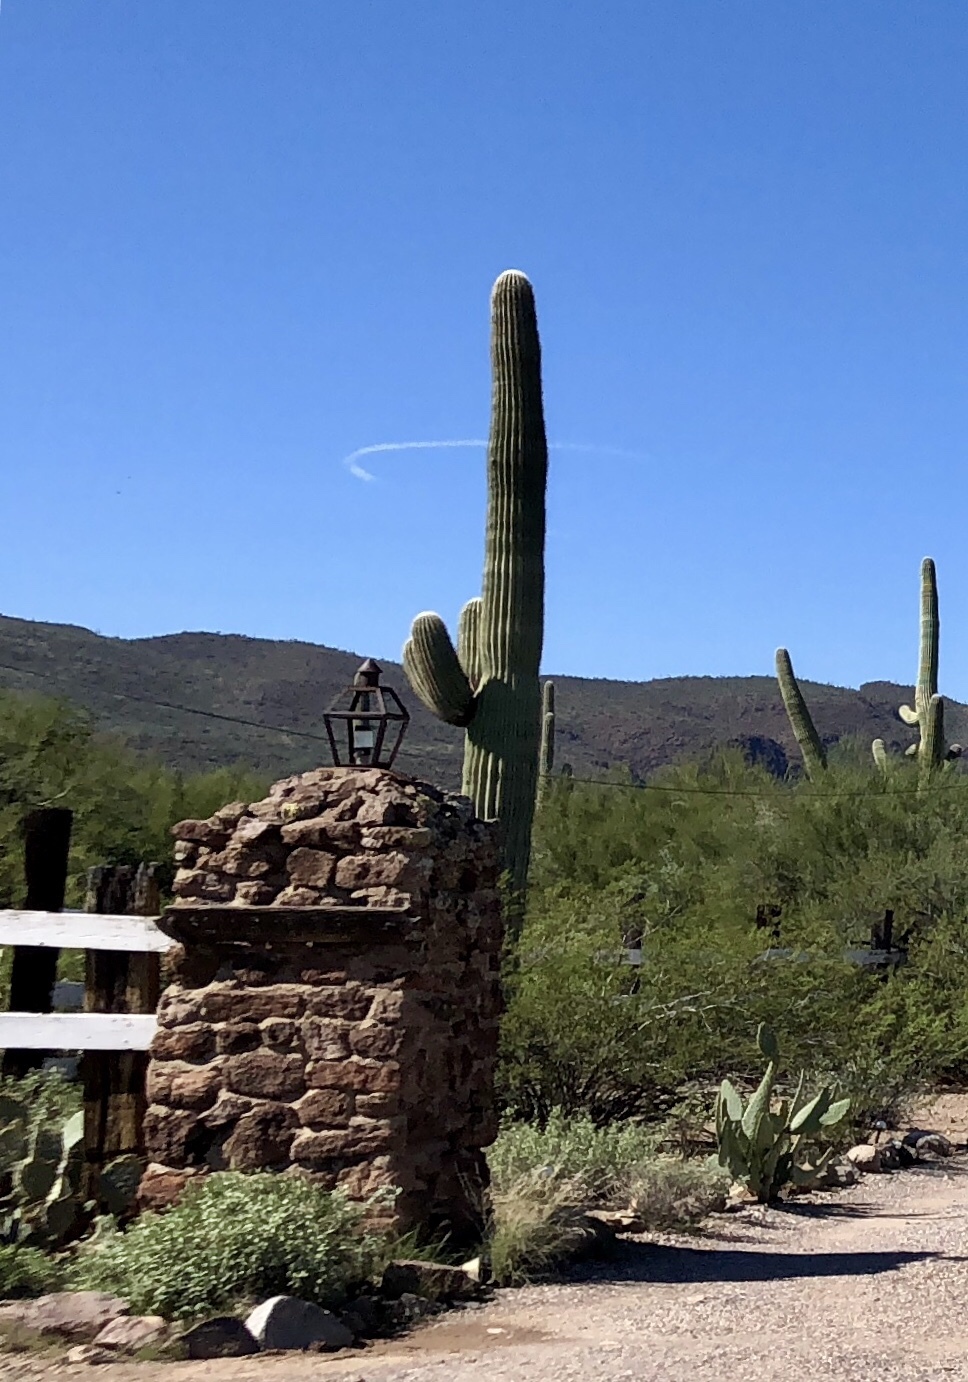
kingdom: Plantae
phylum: Tracheophyta
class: Magnoliopsida
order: Caryophyllales
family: Cactaceae
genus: Carnegiea
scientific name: Carnegiea gigantea
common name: Saguaro
